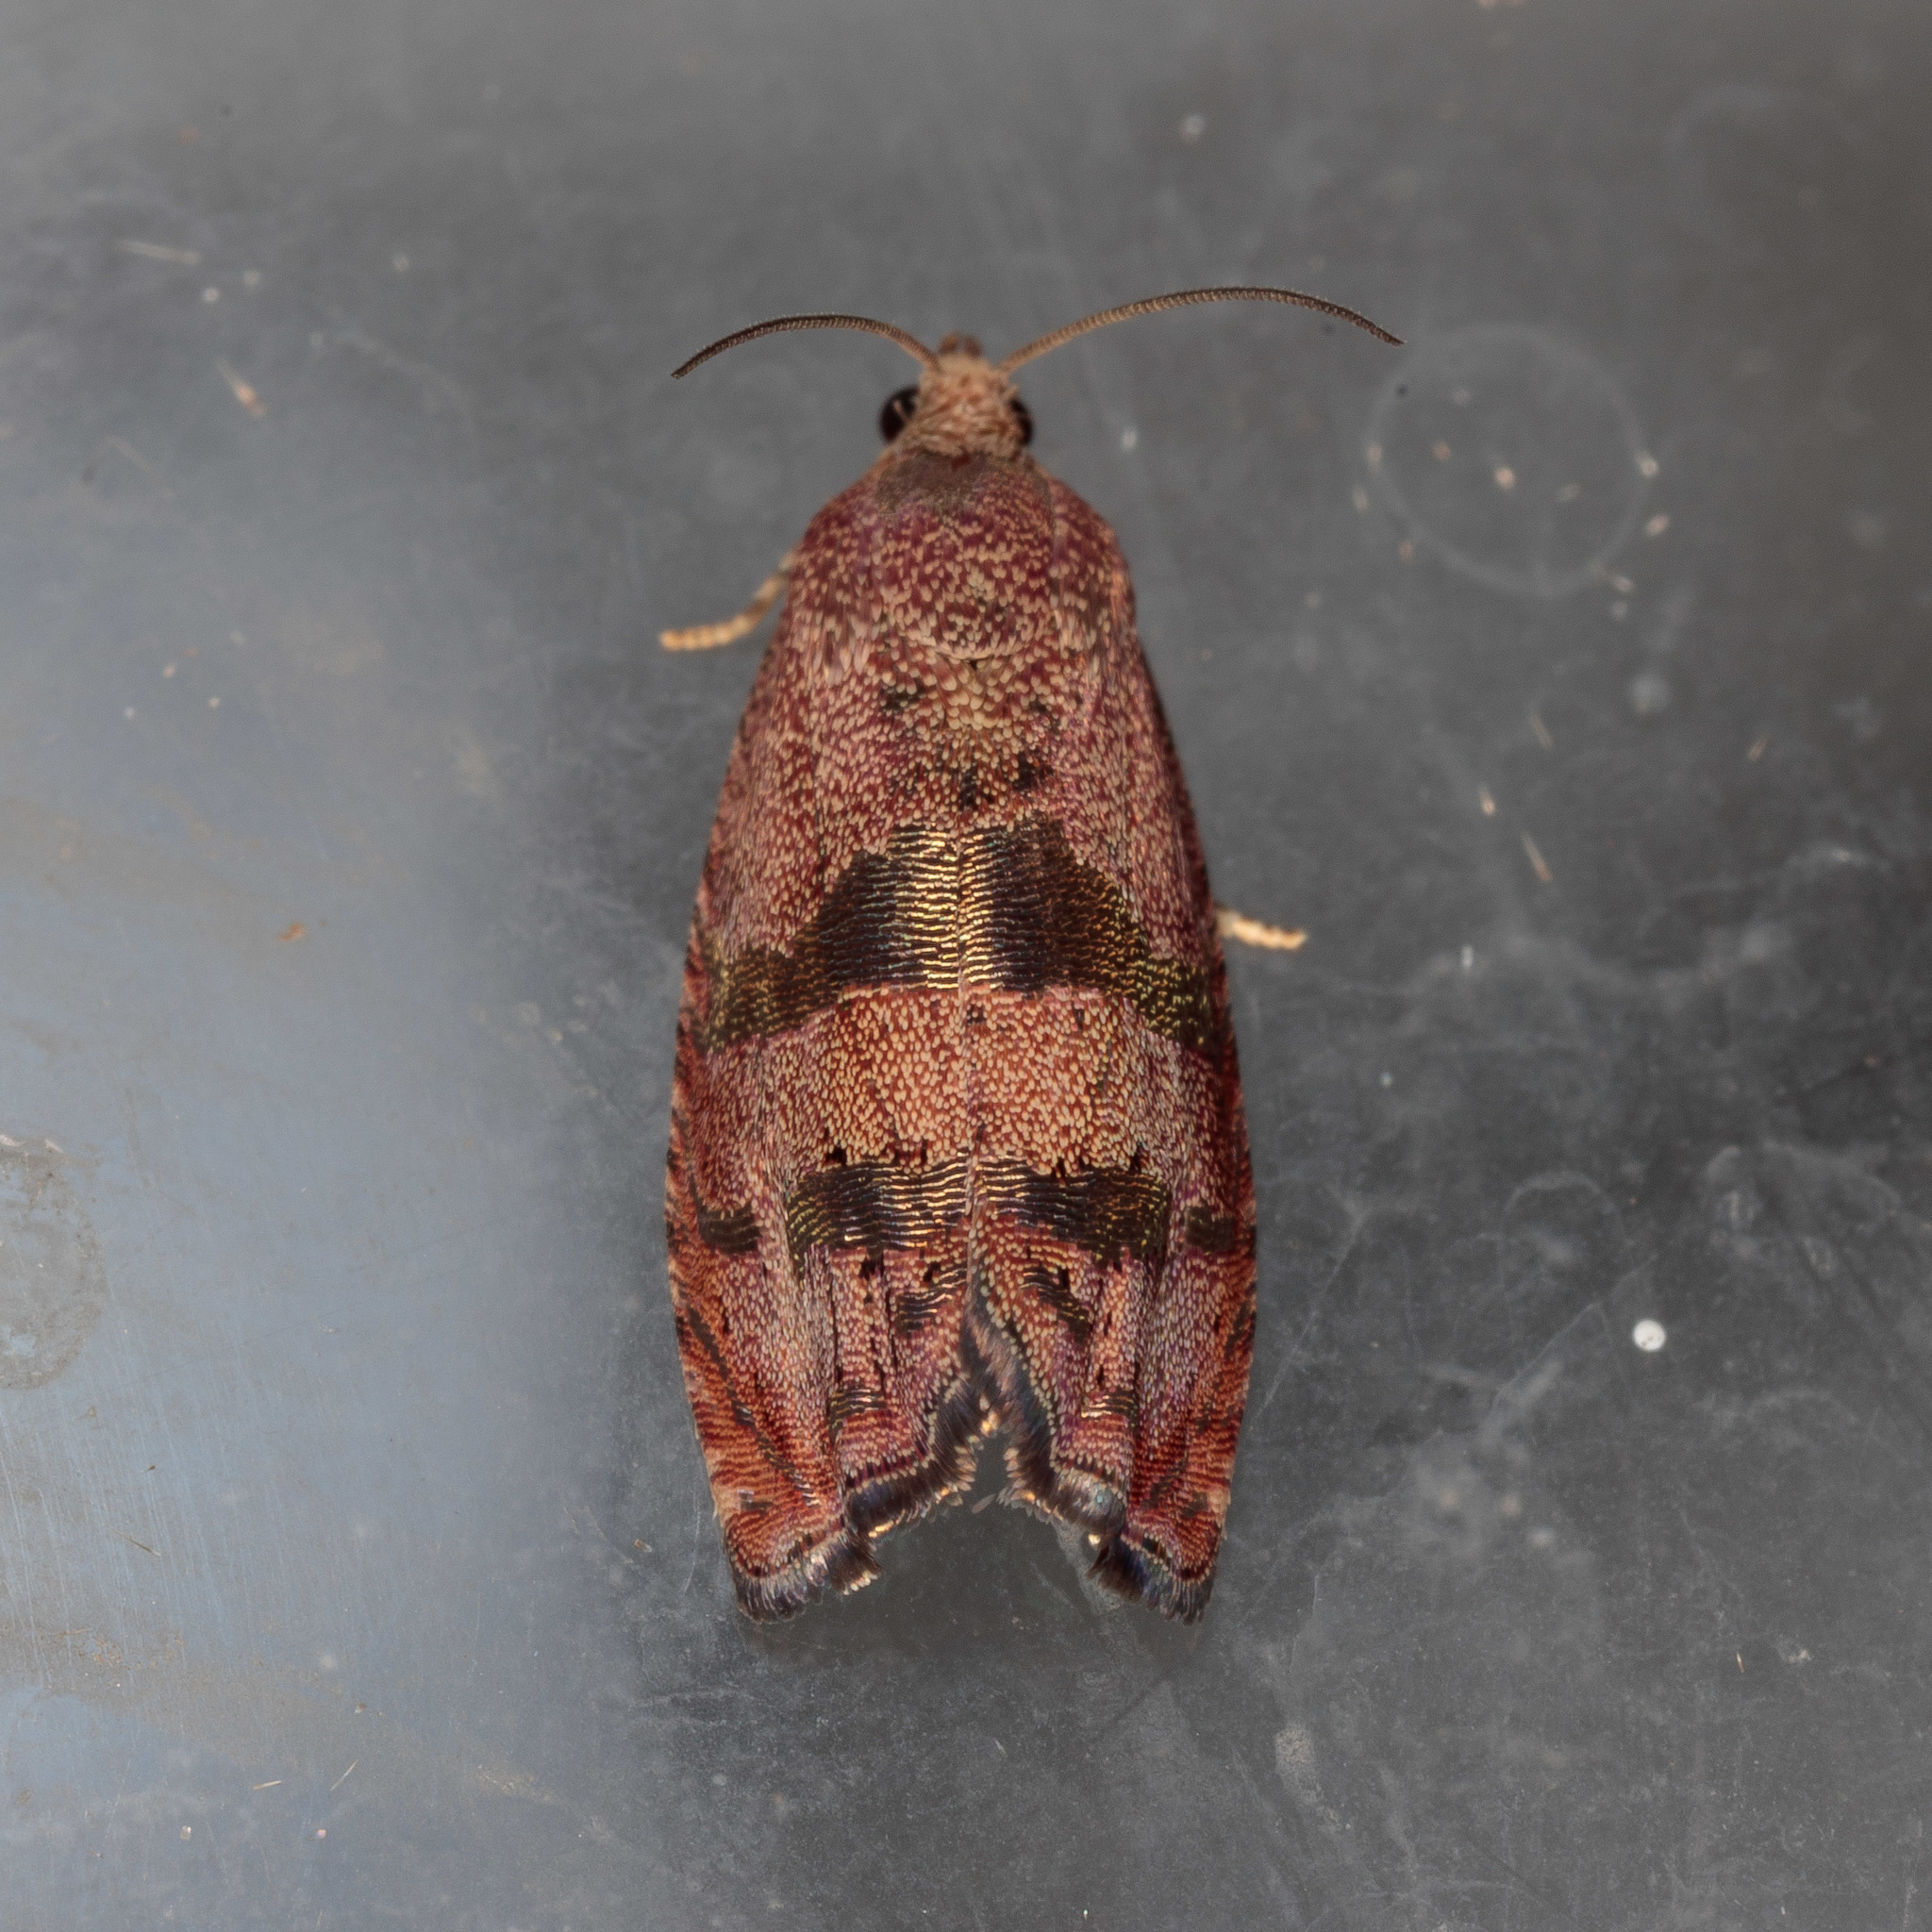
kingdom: Animalia
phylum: Arthropoda
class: Insecta
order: Lepidoptera
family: Tortricidae
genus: Cydia
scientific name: Cydia latiferreana
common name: Filbertworm moth
